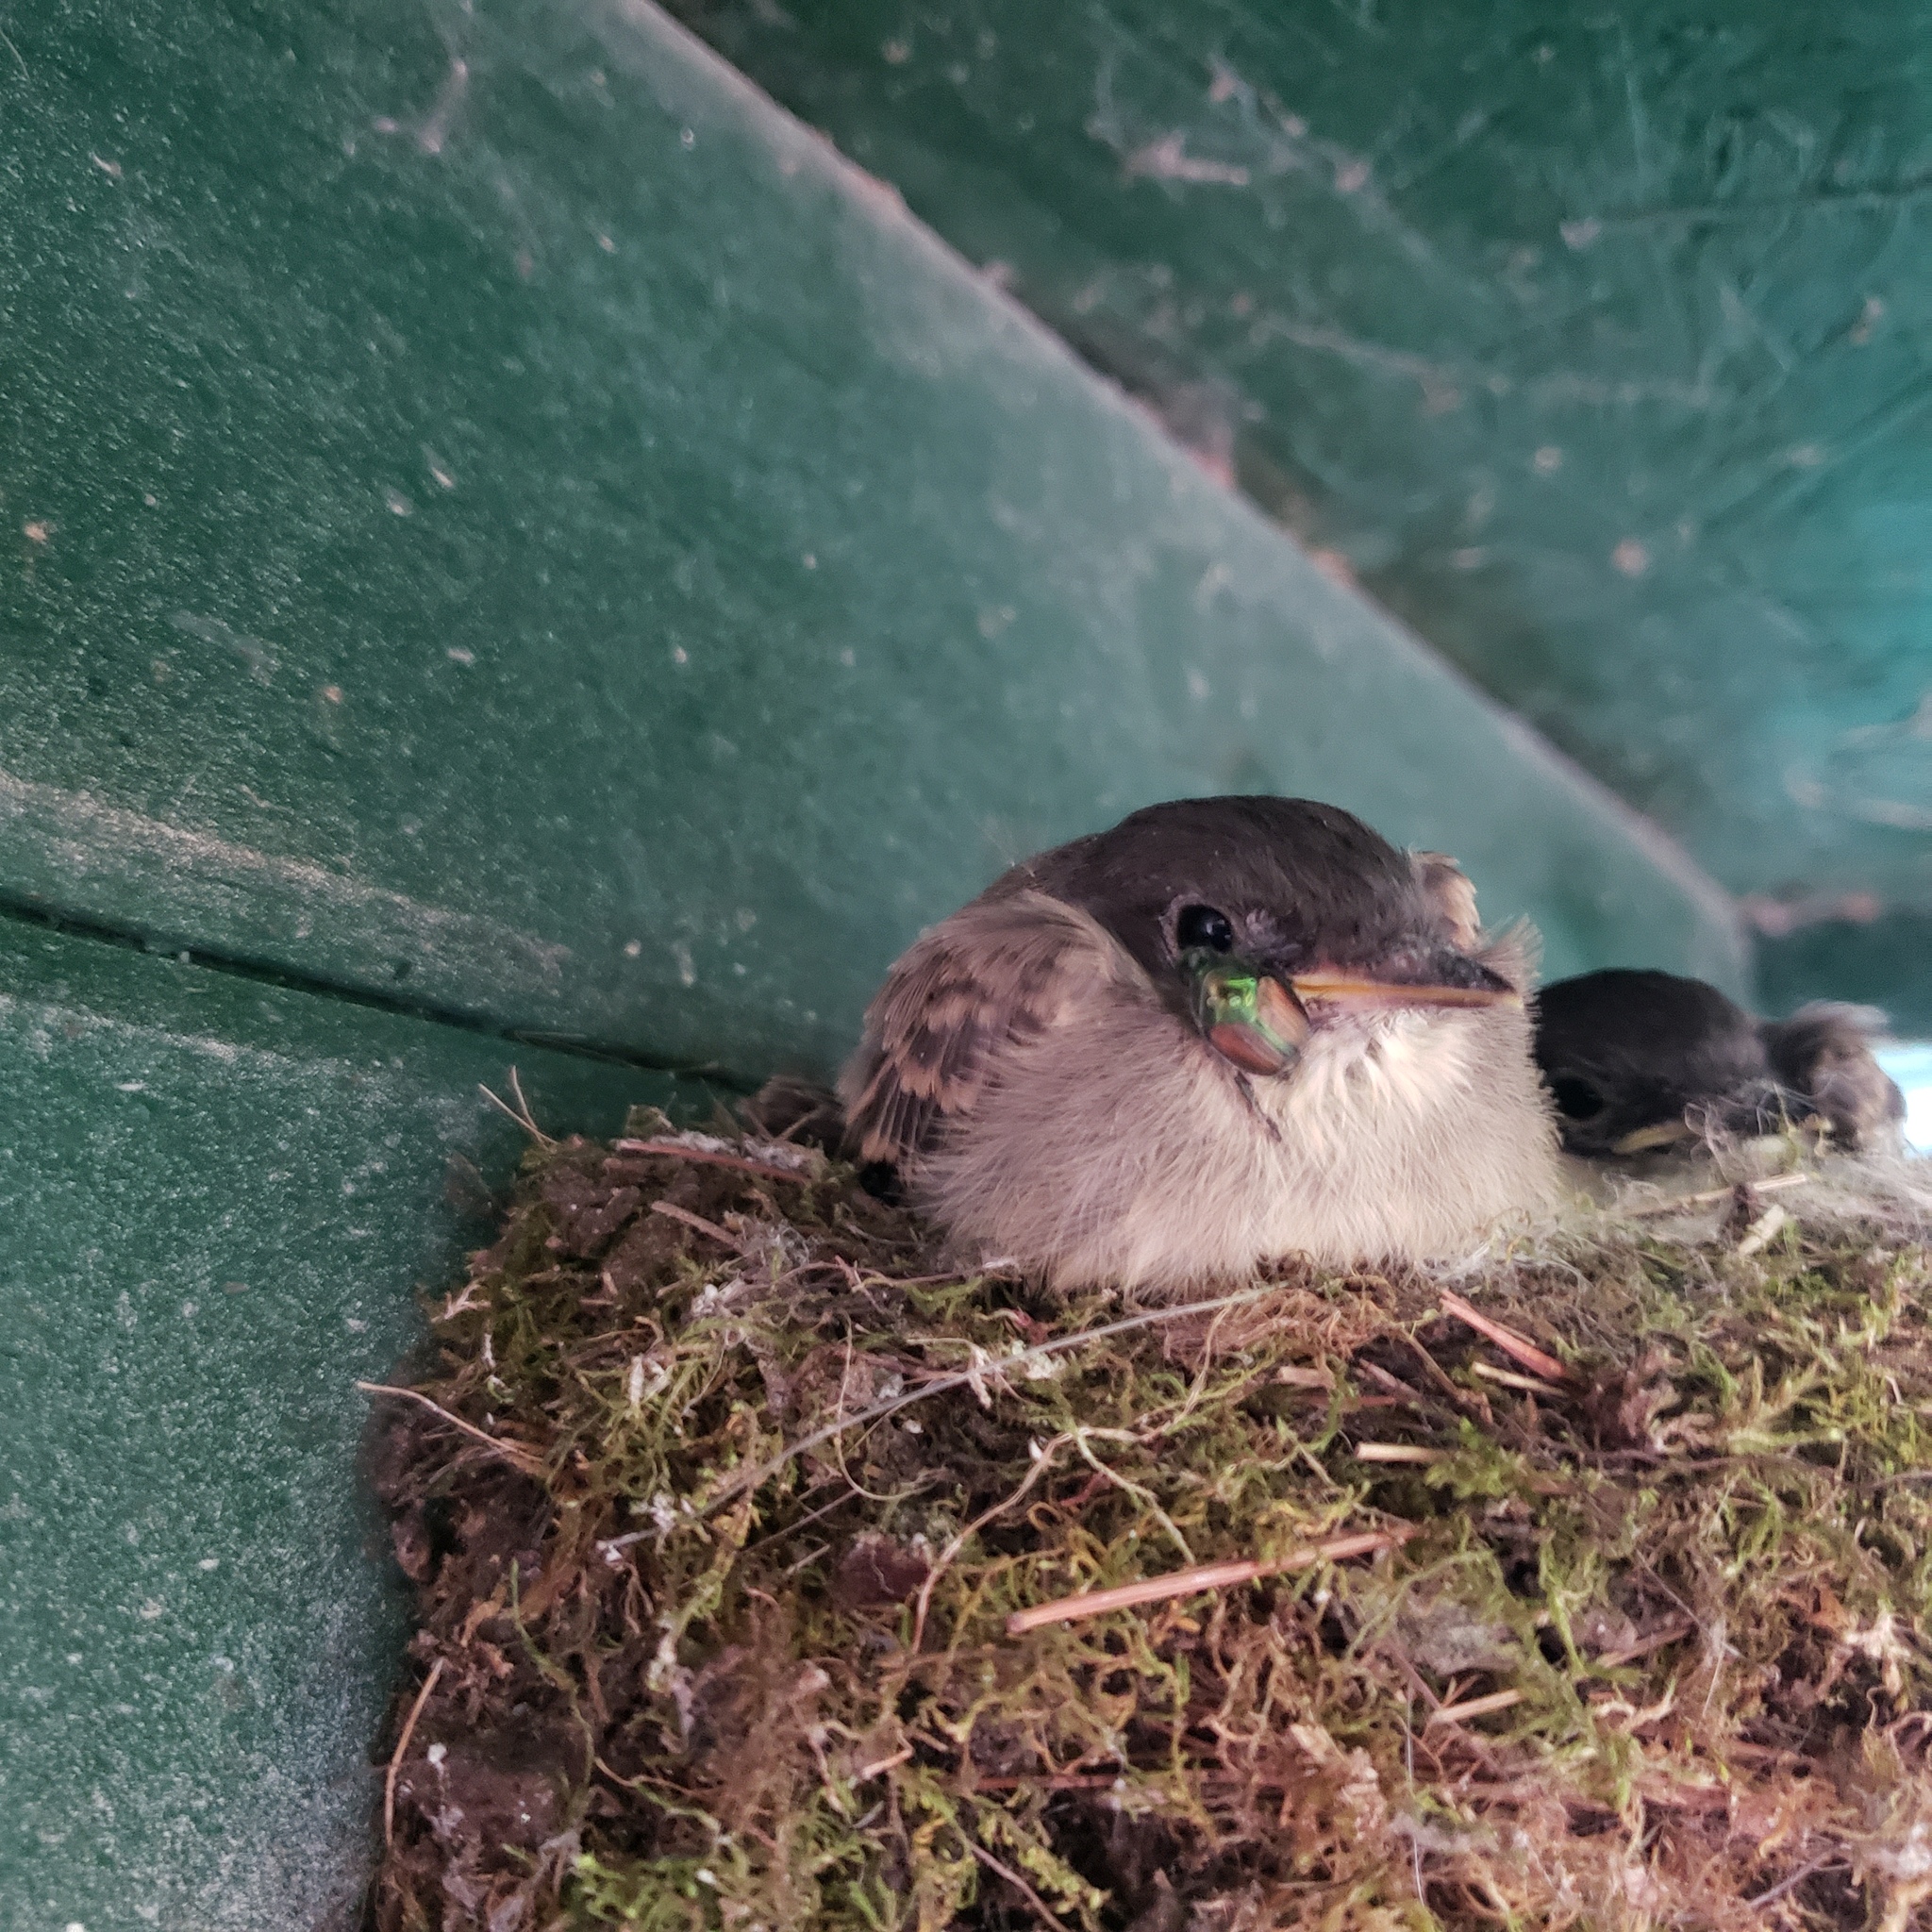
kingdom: Animalia
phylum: Chordata
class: Aves
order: Passeriformes
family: Tyrannidae
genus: Sayornis
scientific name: Sayornis phoebe
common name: Eastern phoebe
